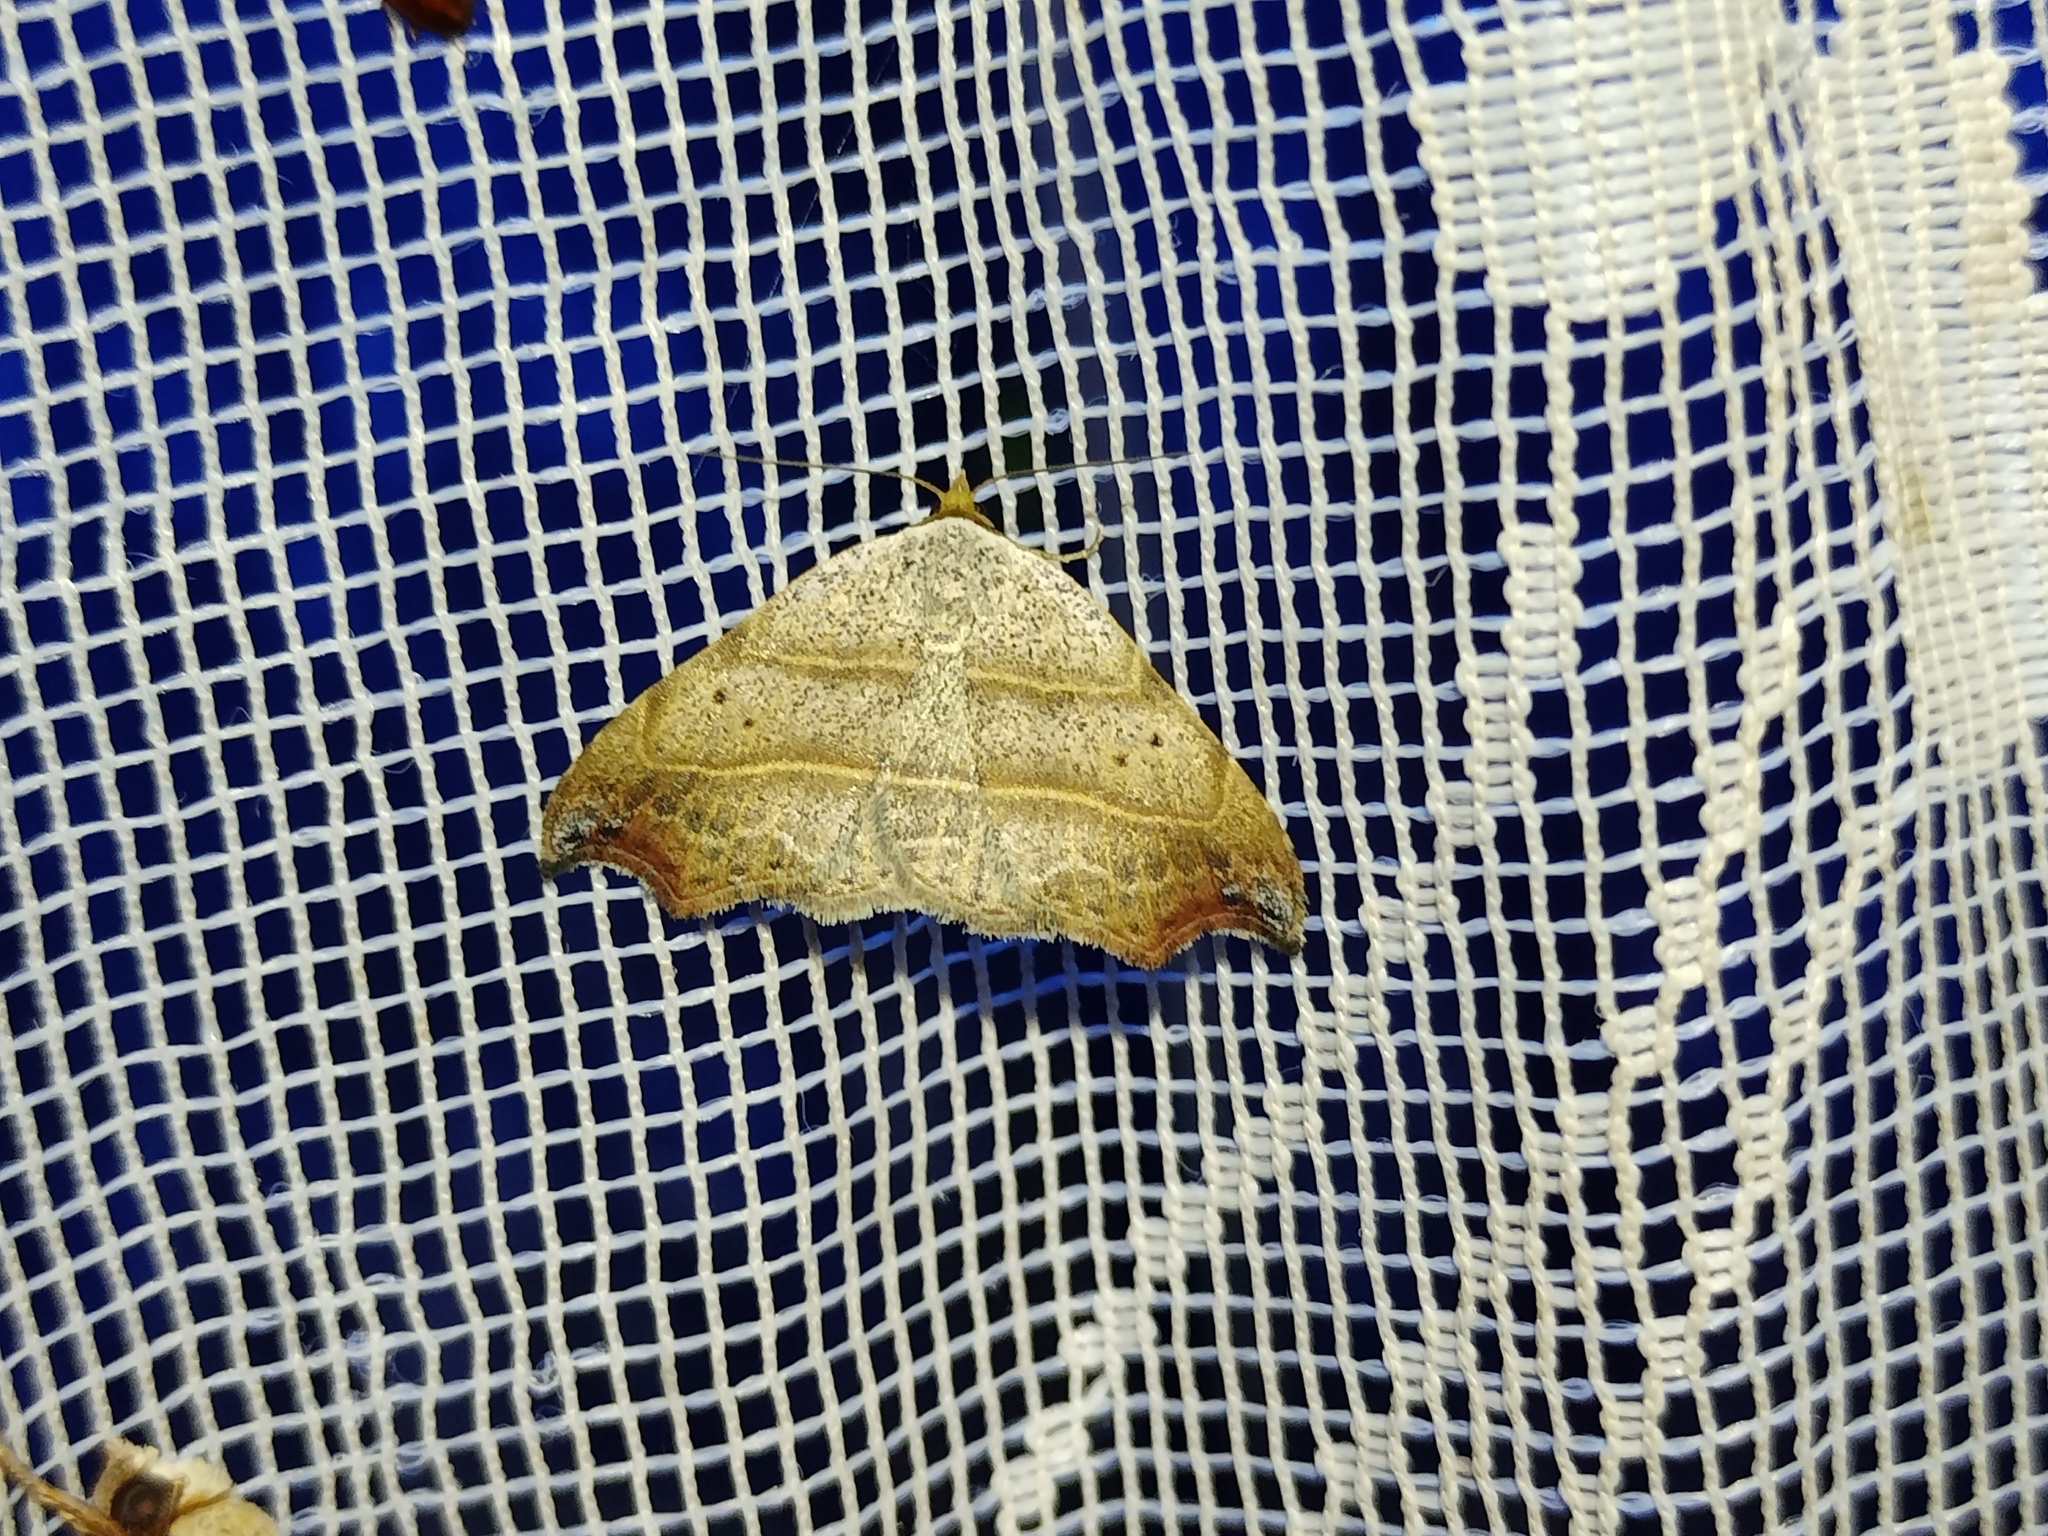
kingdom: Animalia
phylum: Arthropoda
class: Insecta
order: Lepidoptera
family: Erebidae
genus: Laspeyria
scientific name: Laspeyria flexula
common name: Beautiful hook-tip
